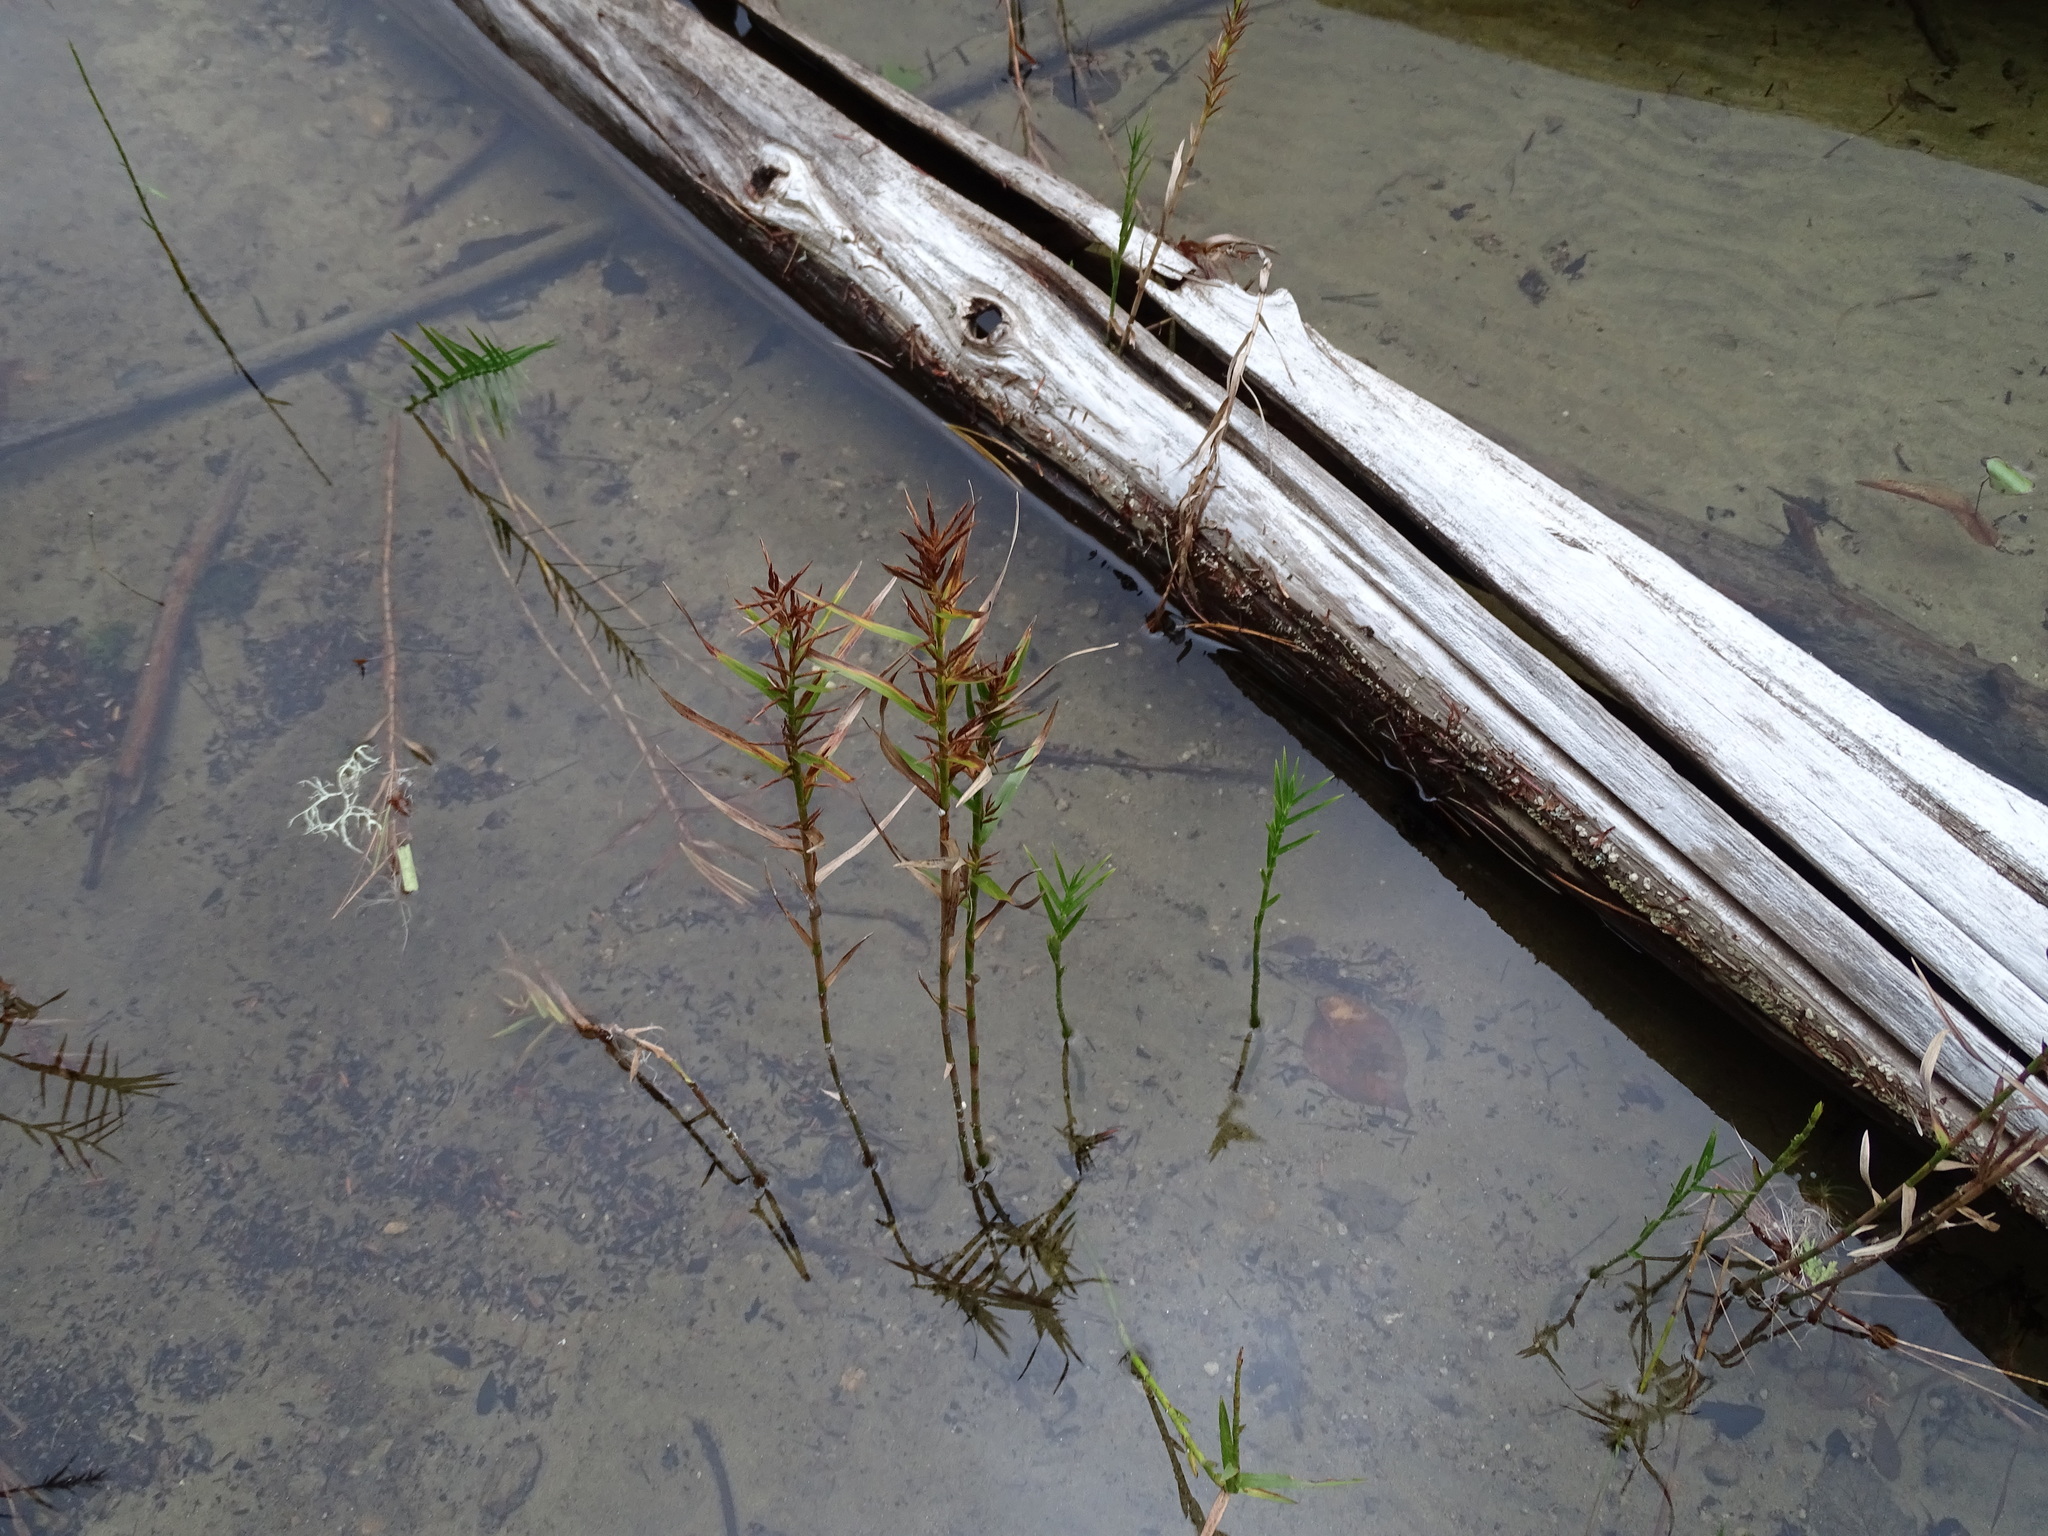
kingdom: Plantae
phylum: Tracheophyta
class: Liliopsida
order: Poales
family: Cyperaceae
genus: Dulichium
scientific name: Dulichium arundinaceum
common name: Three-way sedge
